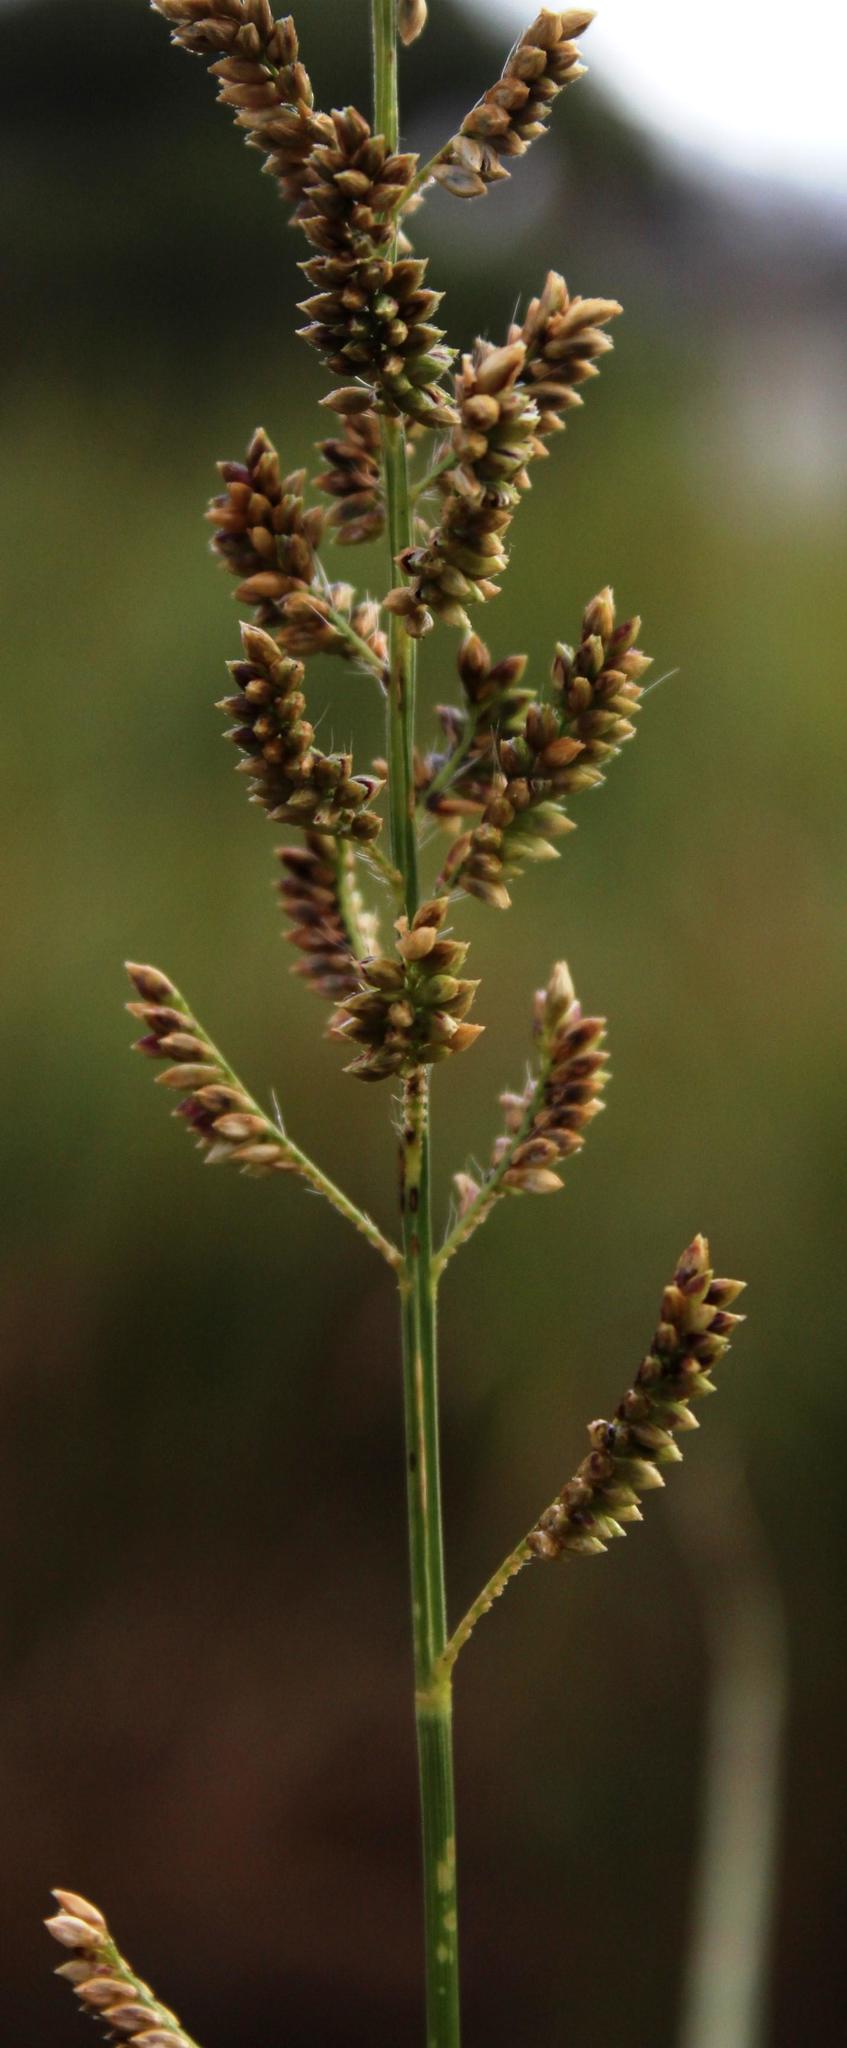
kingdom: Plantae
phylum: Tracheophyta
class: Liliopsida
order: Poales
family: Poaceae
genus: Echinochloa
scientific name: Echinochloa pyramidalis
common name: Antelope grass
